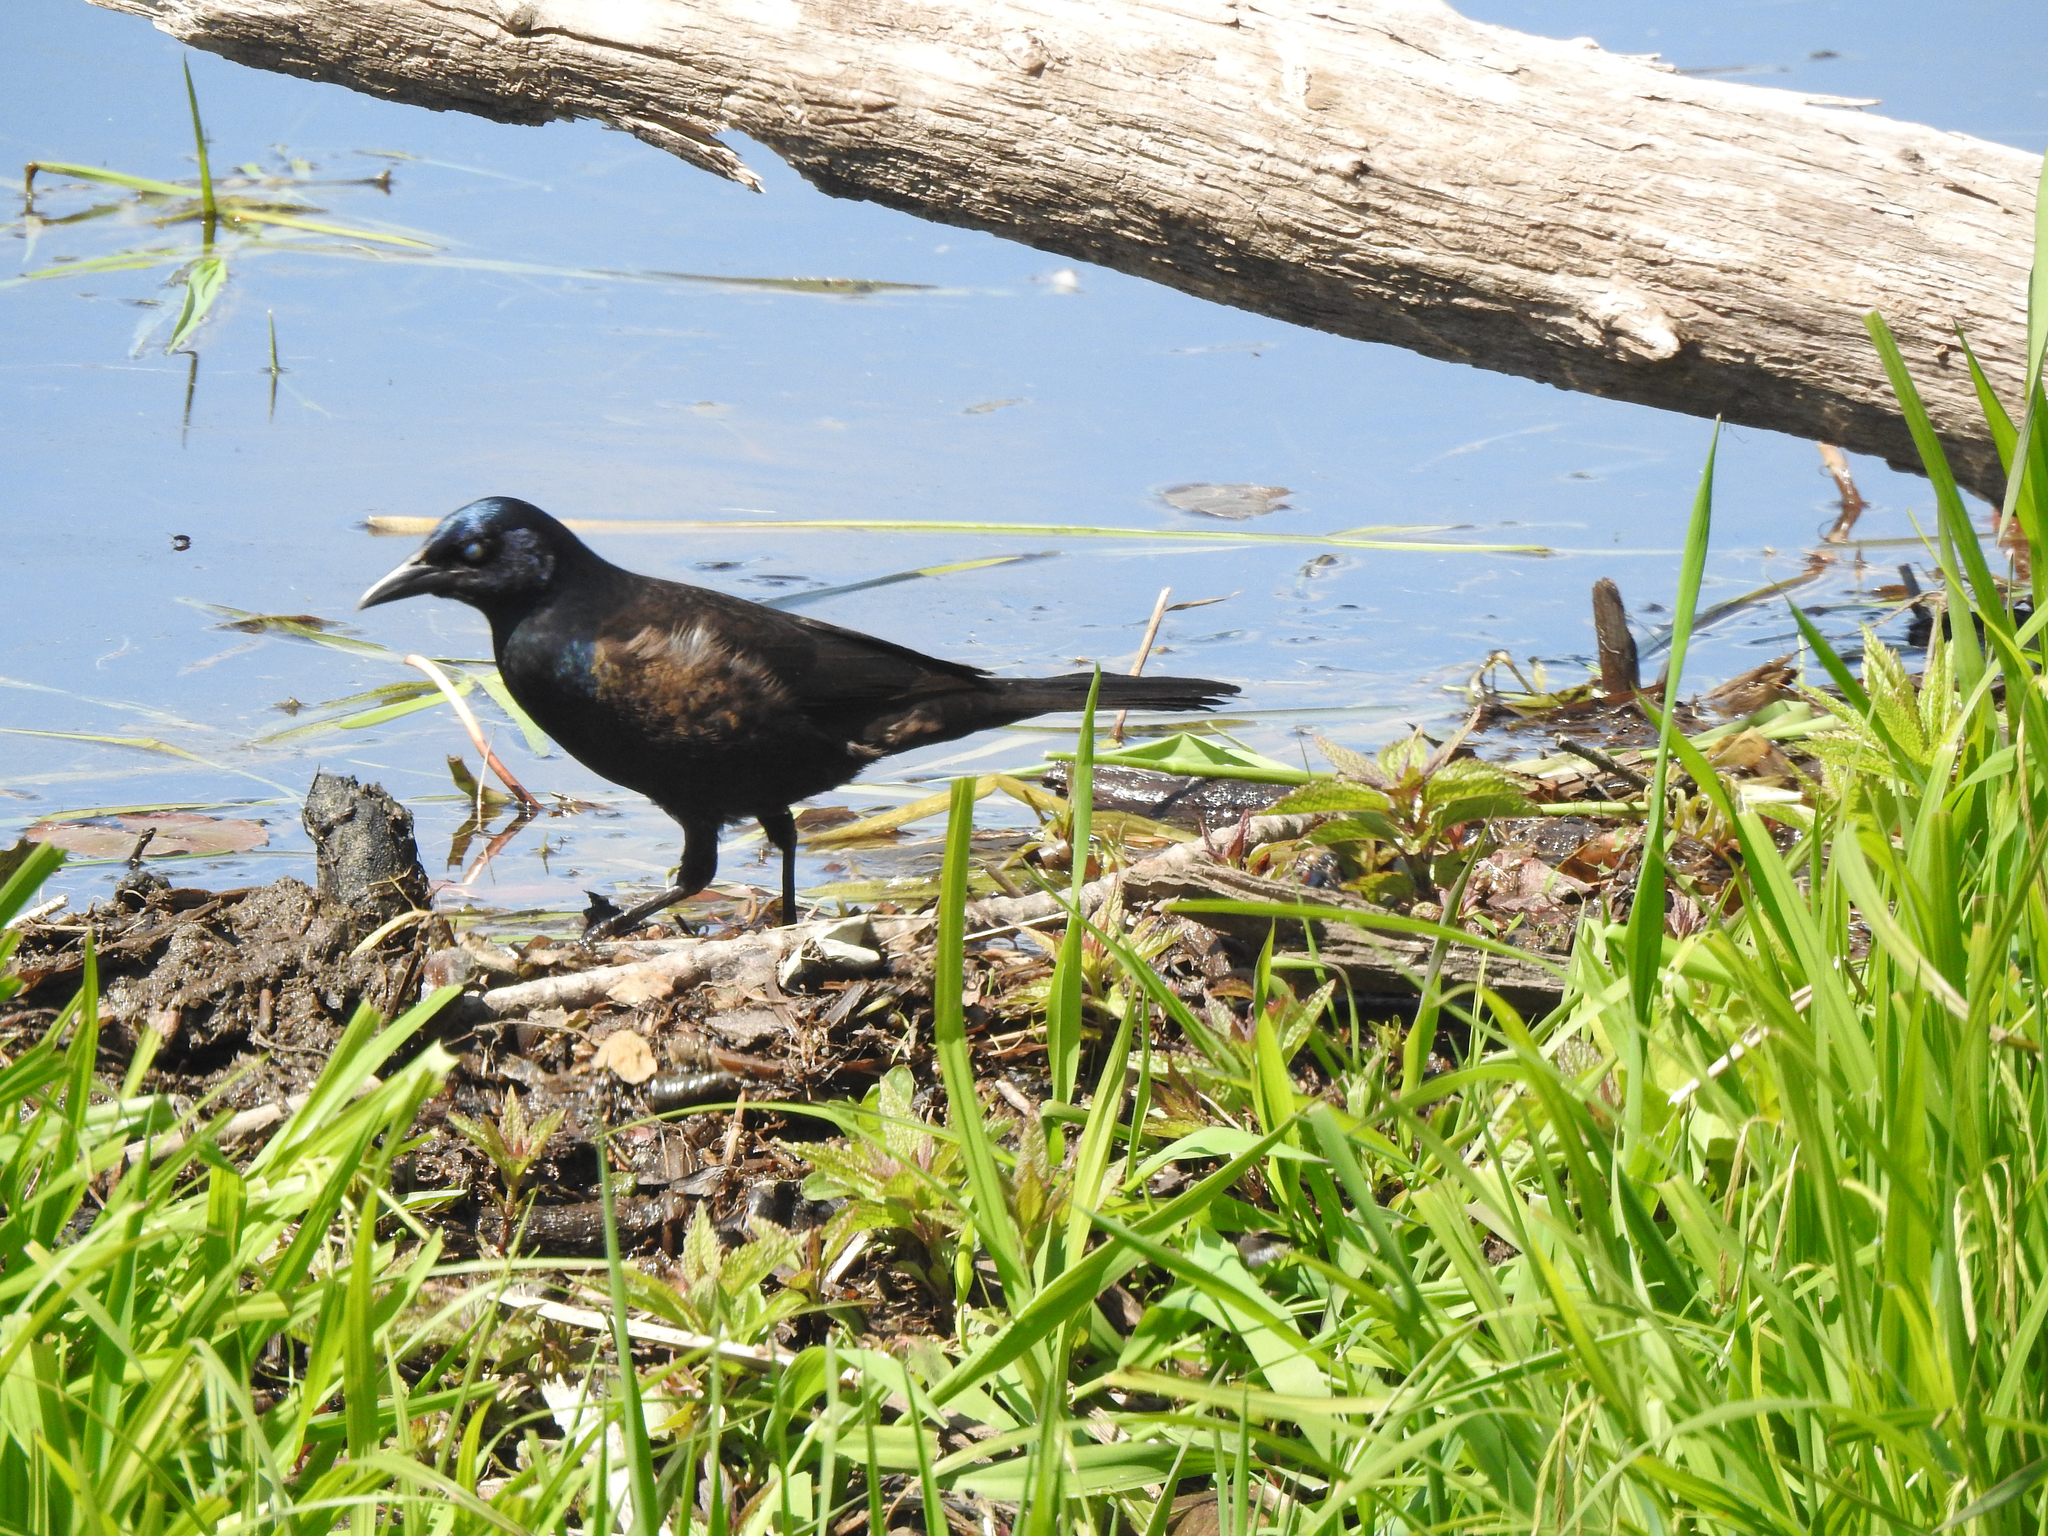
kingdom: Animalia
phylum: Chordata
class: Aves
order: Passeriformes
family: Icteridae
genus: Quiscalus
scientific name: Quiscalus quiscula
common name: Common grackle
